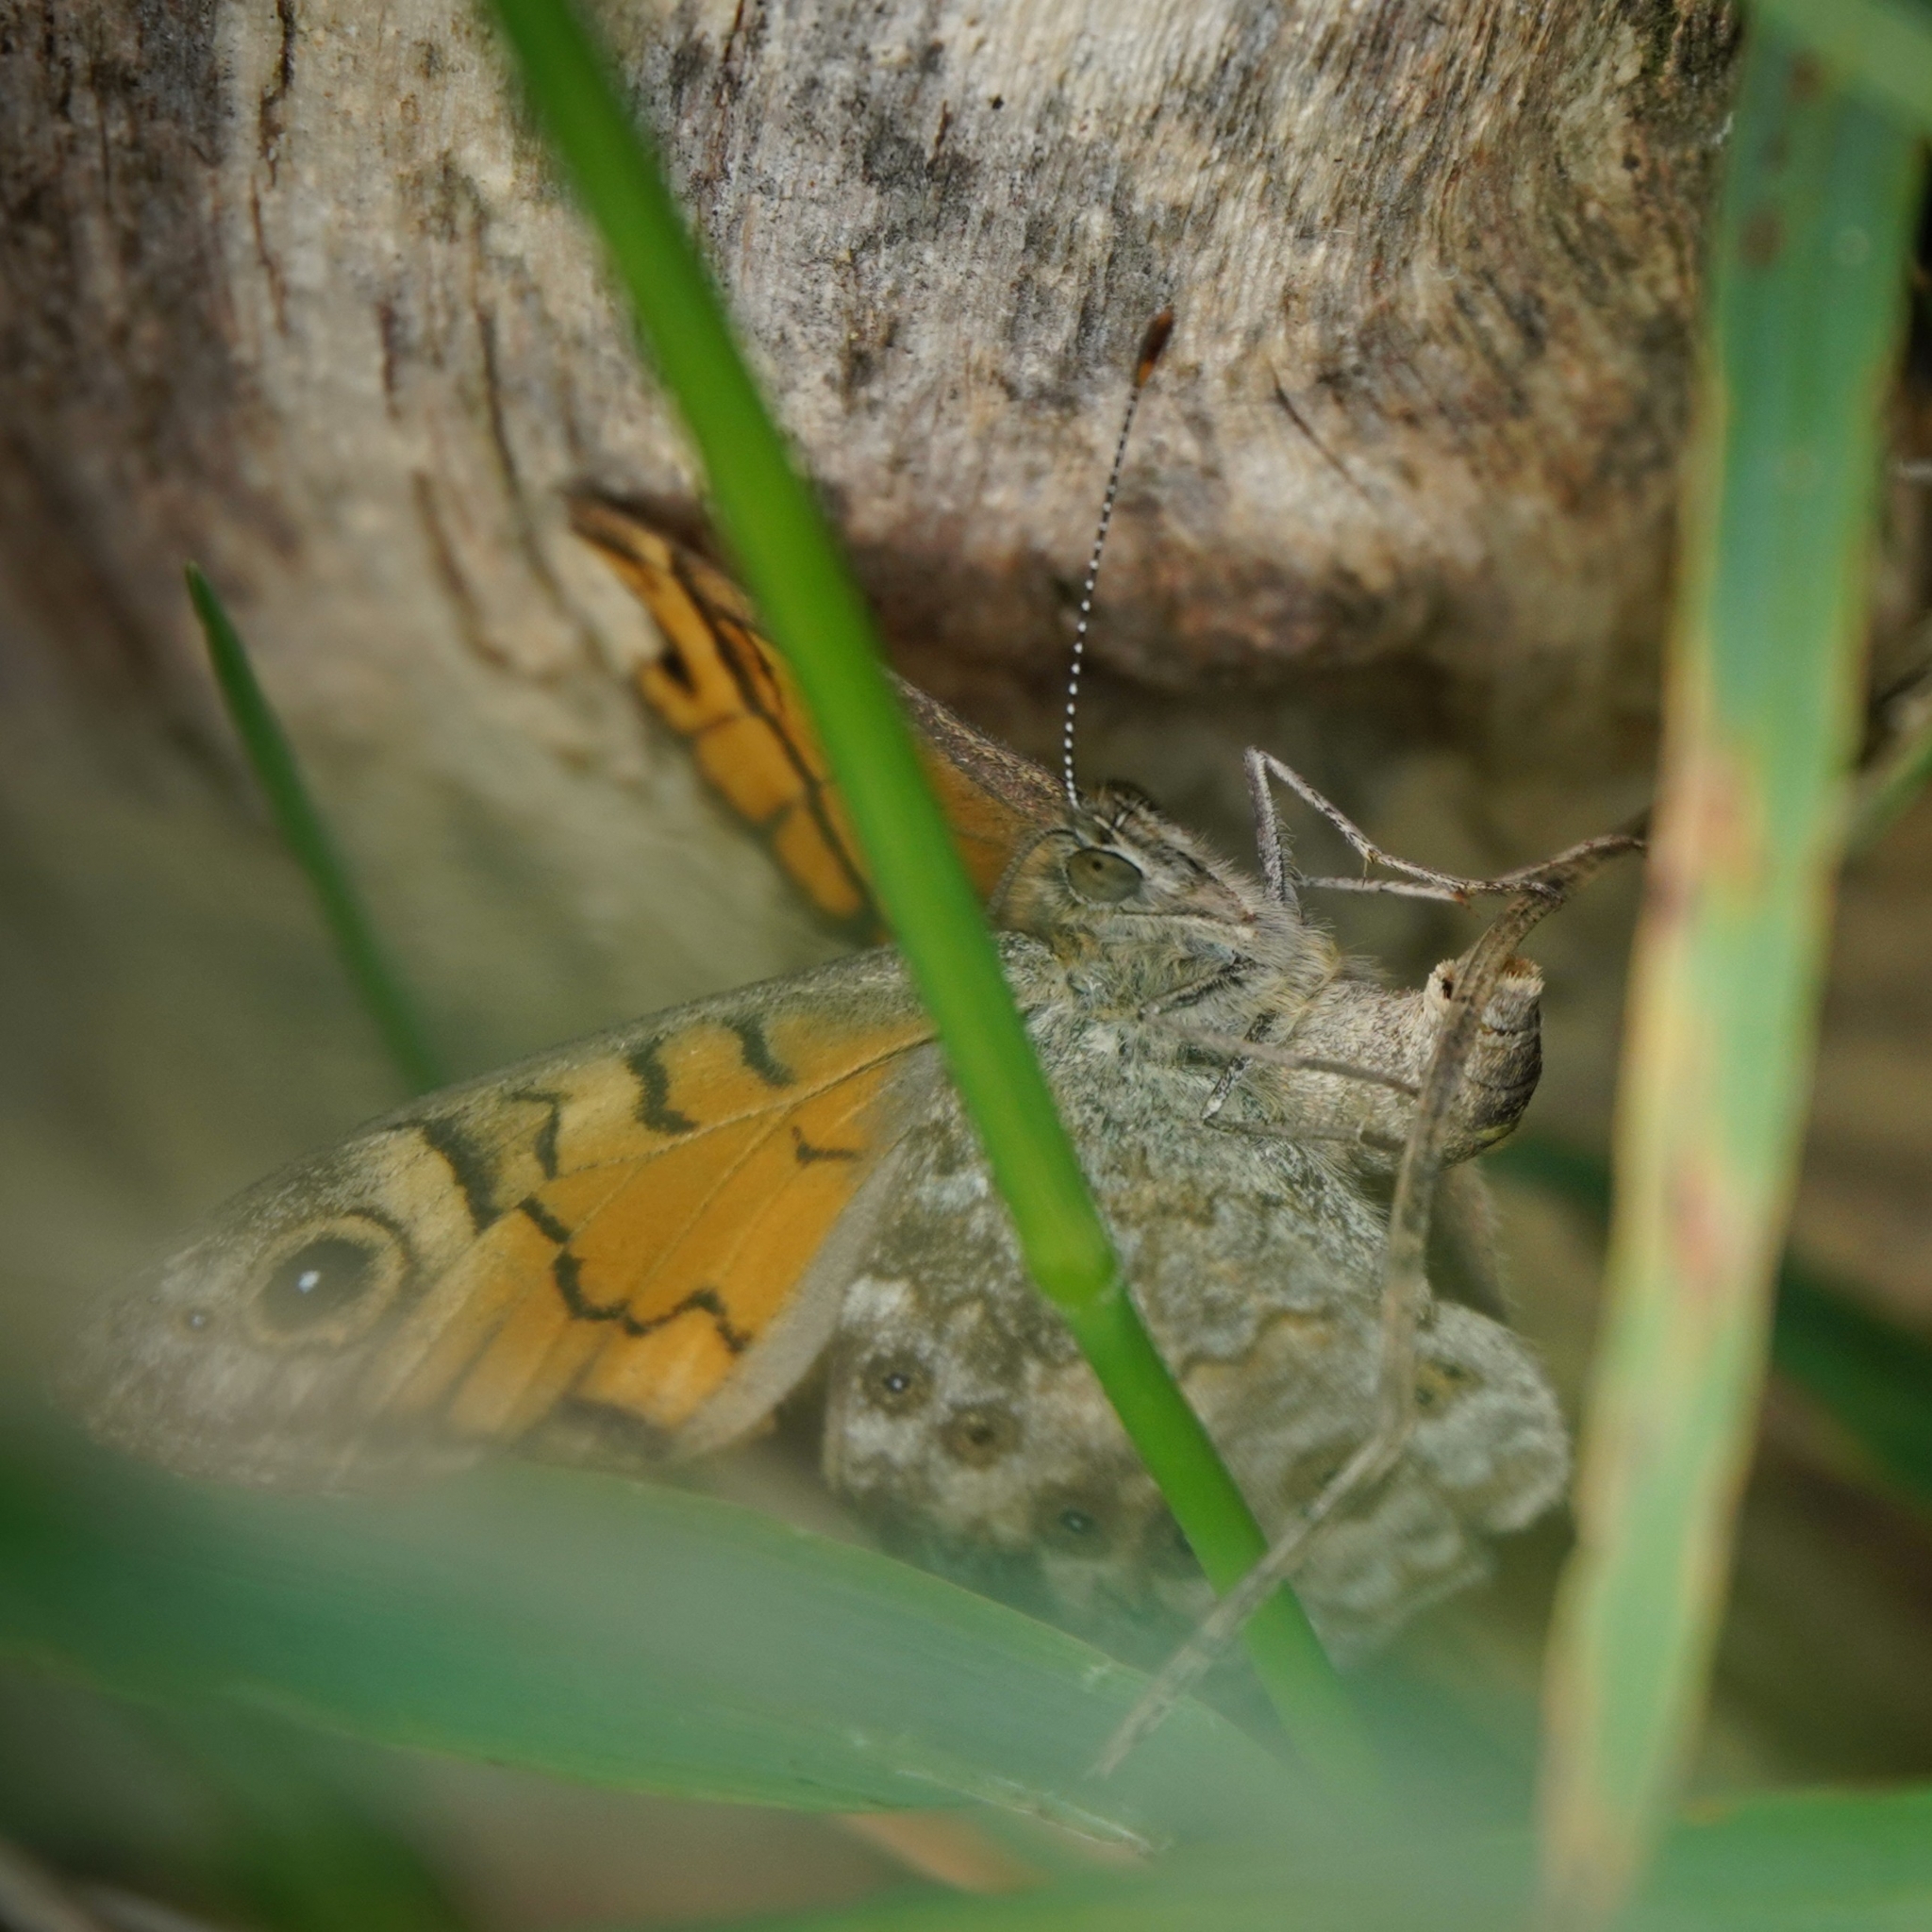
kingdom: Animalia
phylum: Arthropoda
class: Insecta
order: Lepidoptera
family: Nymphalidae
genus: Pararge
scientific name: Pararge Lasiommata megera
